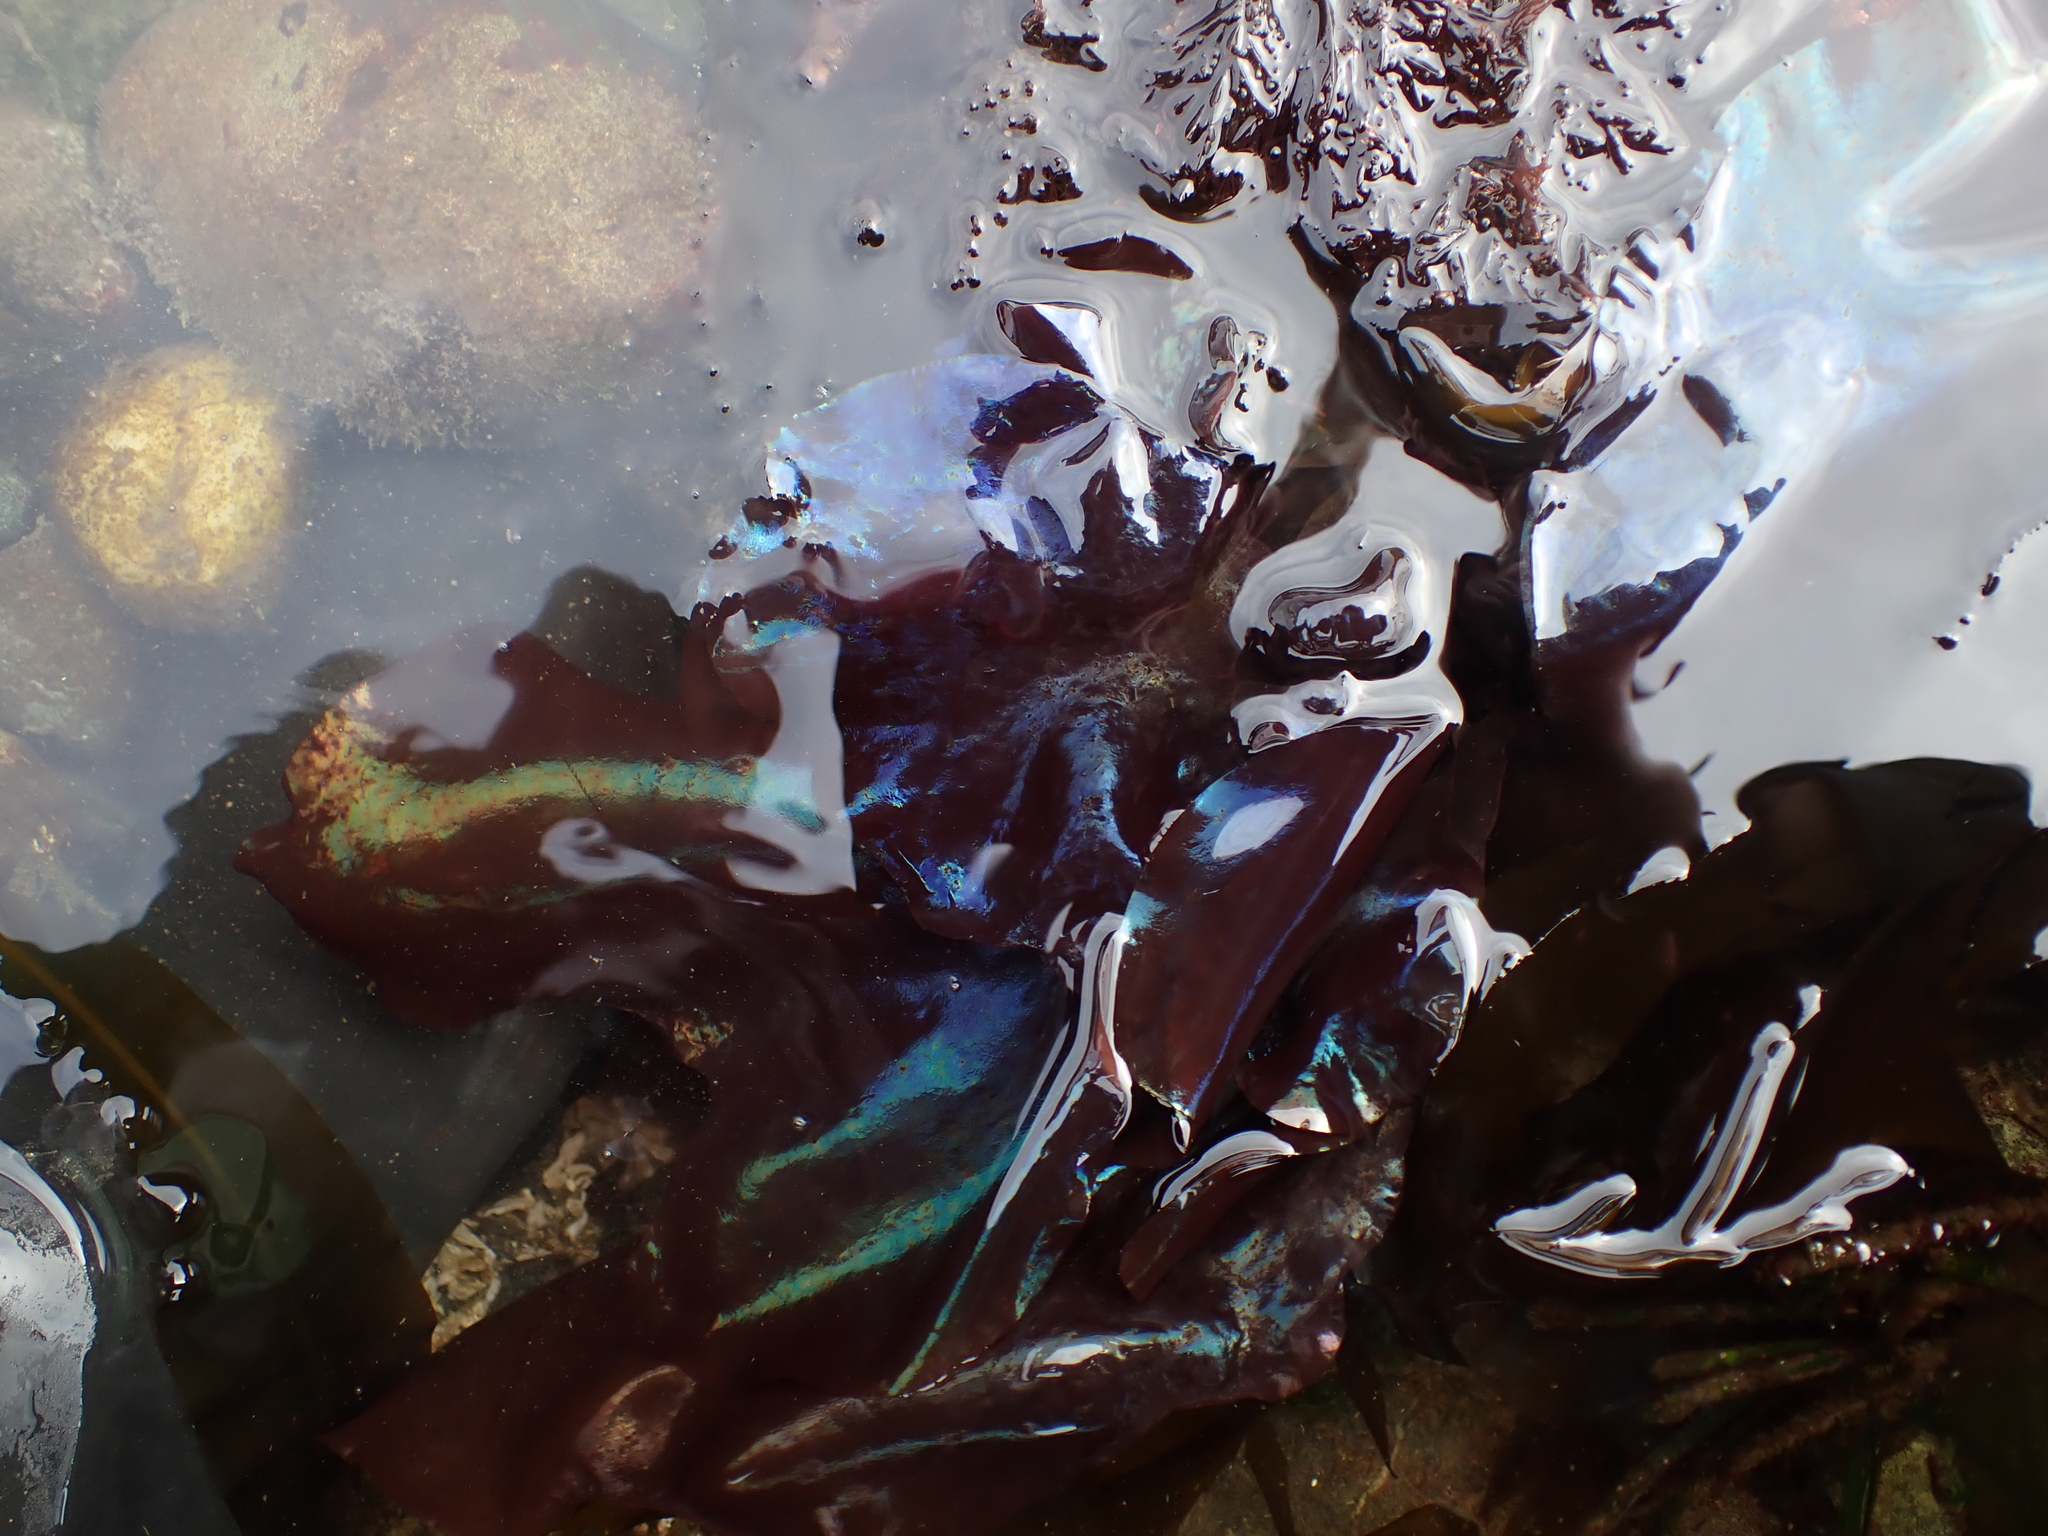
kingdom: Plantae
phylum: Rhodophyta
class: Florideophyceae
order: Gigartinales
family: Gigartinaceae
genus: Mazzaella
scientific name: Mazzaella splendens
